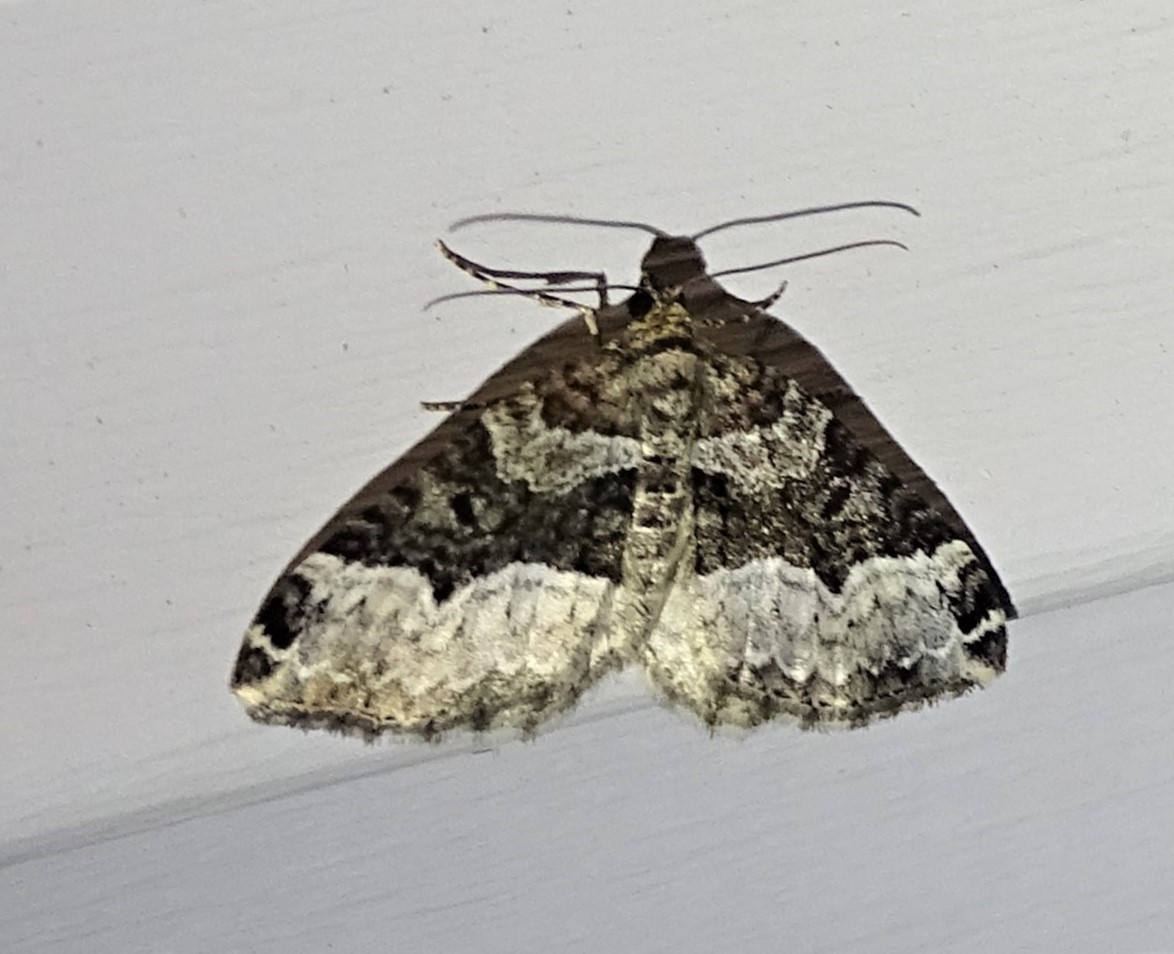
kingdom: Animalia
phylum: Arthropoda
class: Insecta
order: Lepidoptera
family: Geometridae
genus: Euphyia
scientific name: Euphyia intermediata
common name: Sharp-angled carpet
